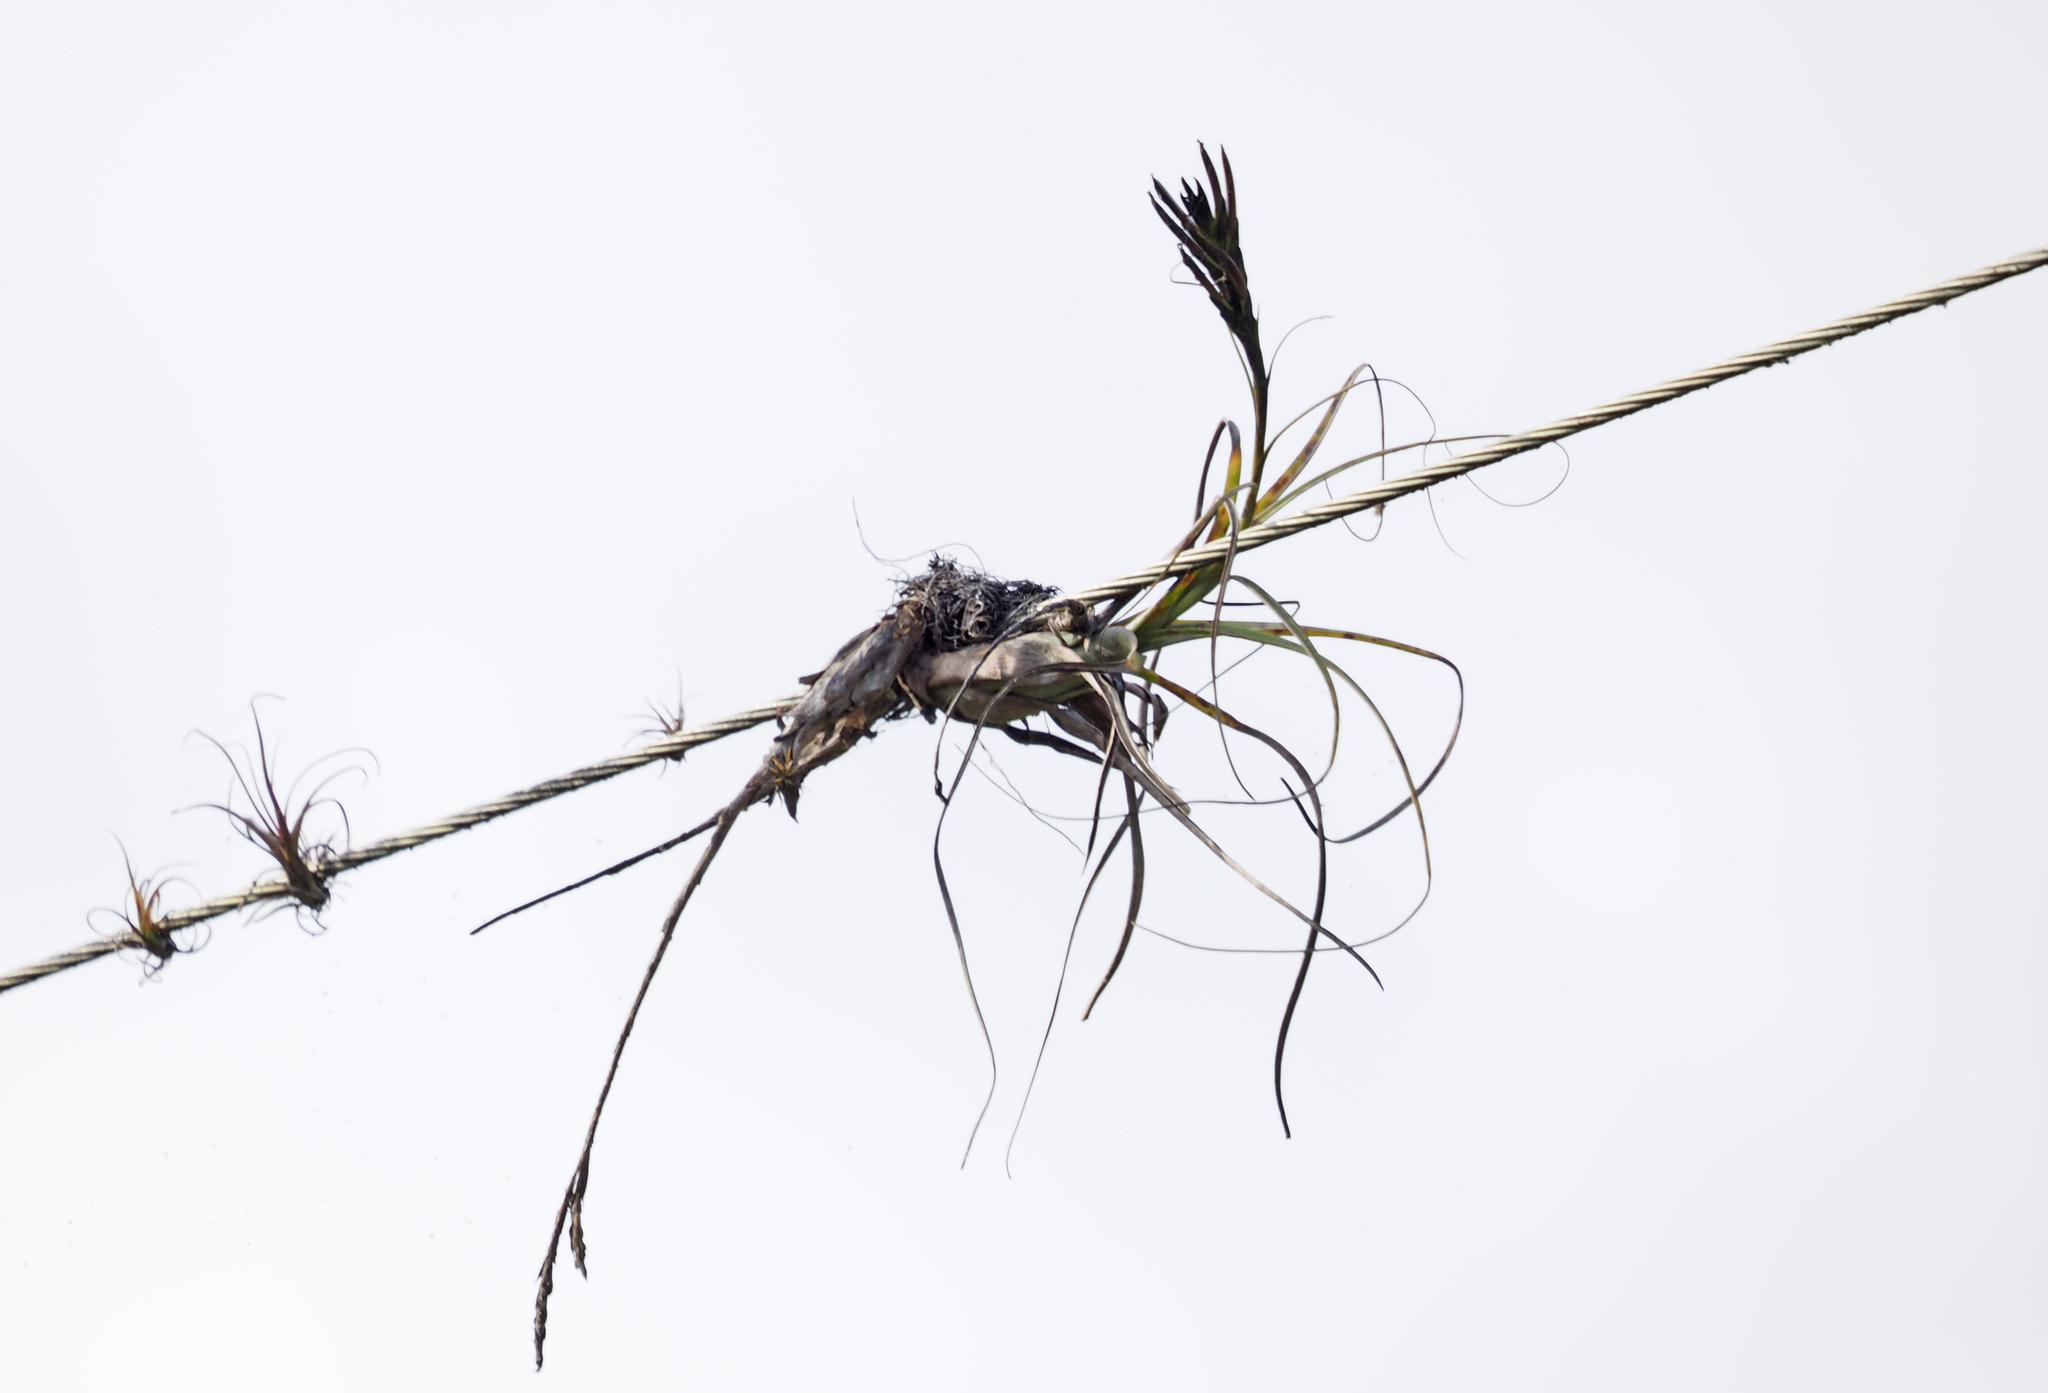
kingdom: Plantae
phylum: Tracheophyta
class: Liliopsida
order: Poales
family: Bromeliaceae
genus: Tillandsia
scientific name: Tillandsia balbisiana
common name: Northern needleleaf
